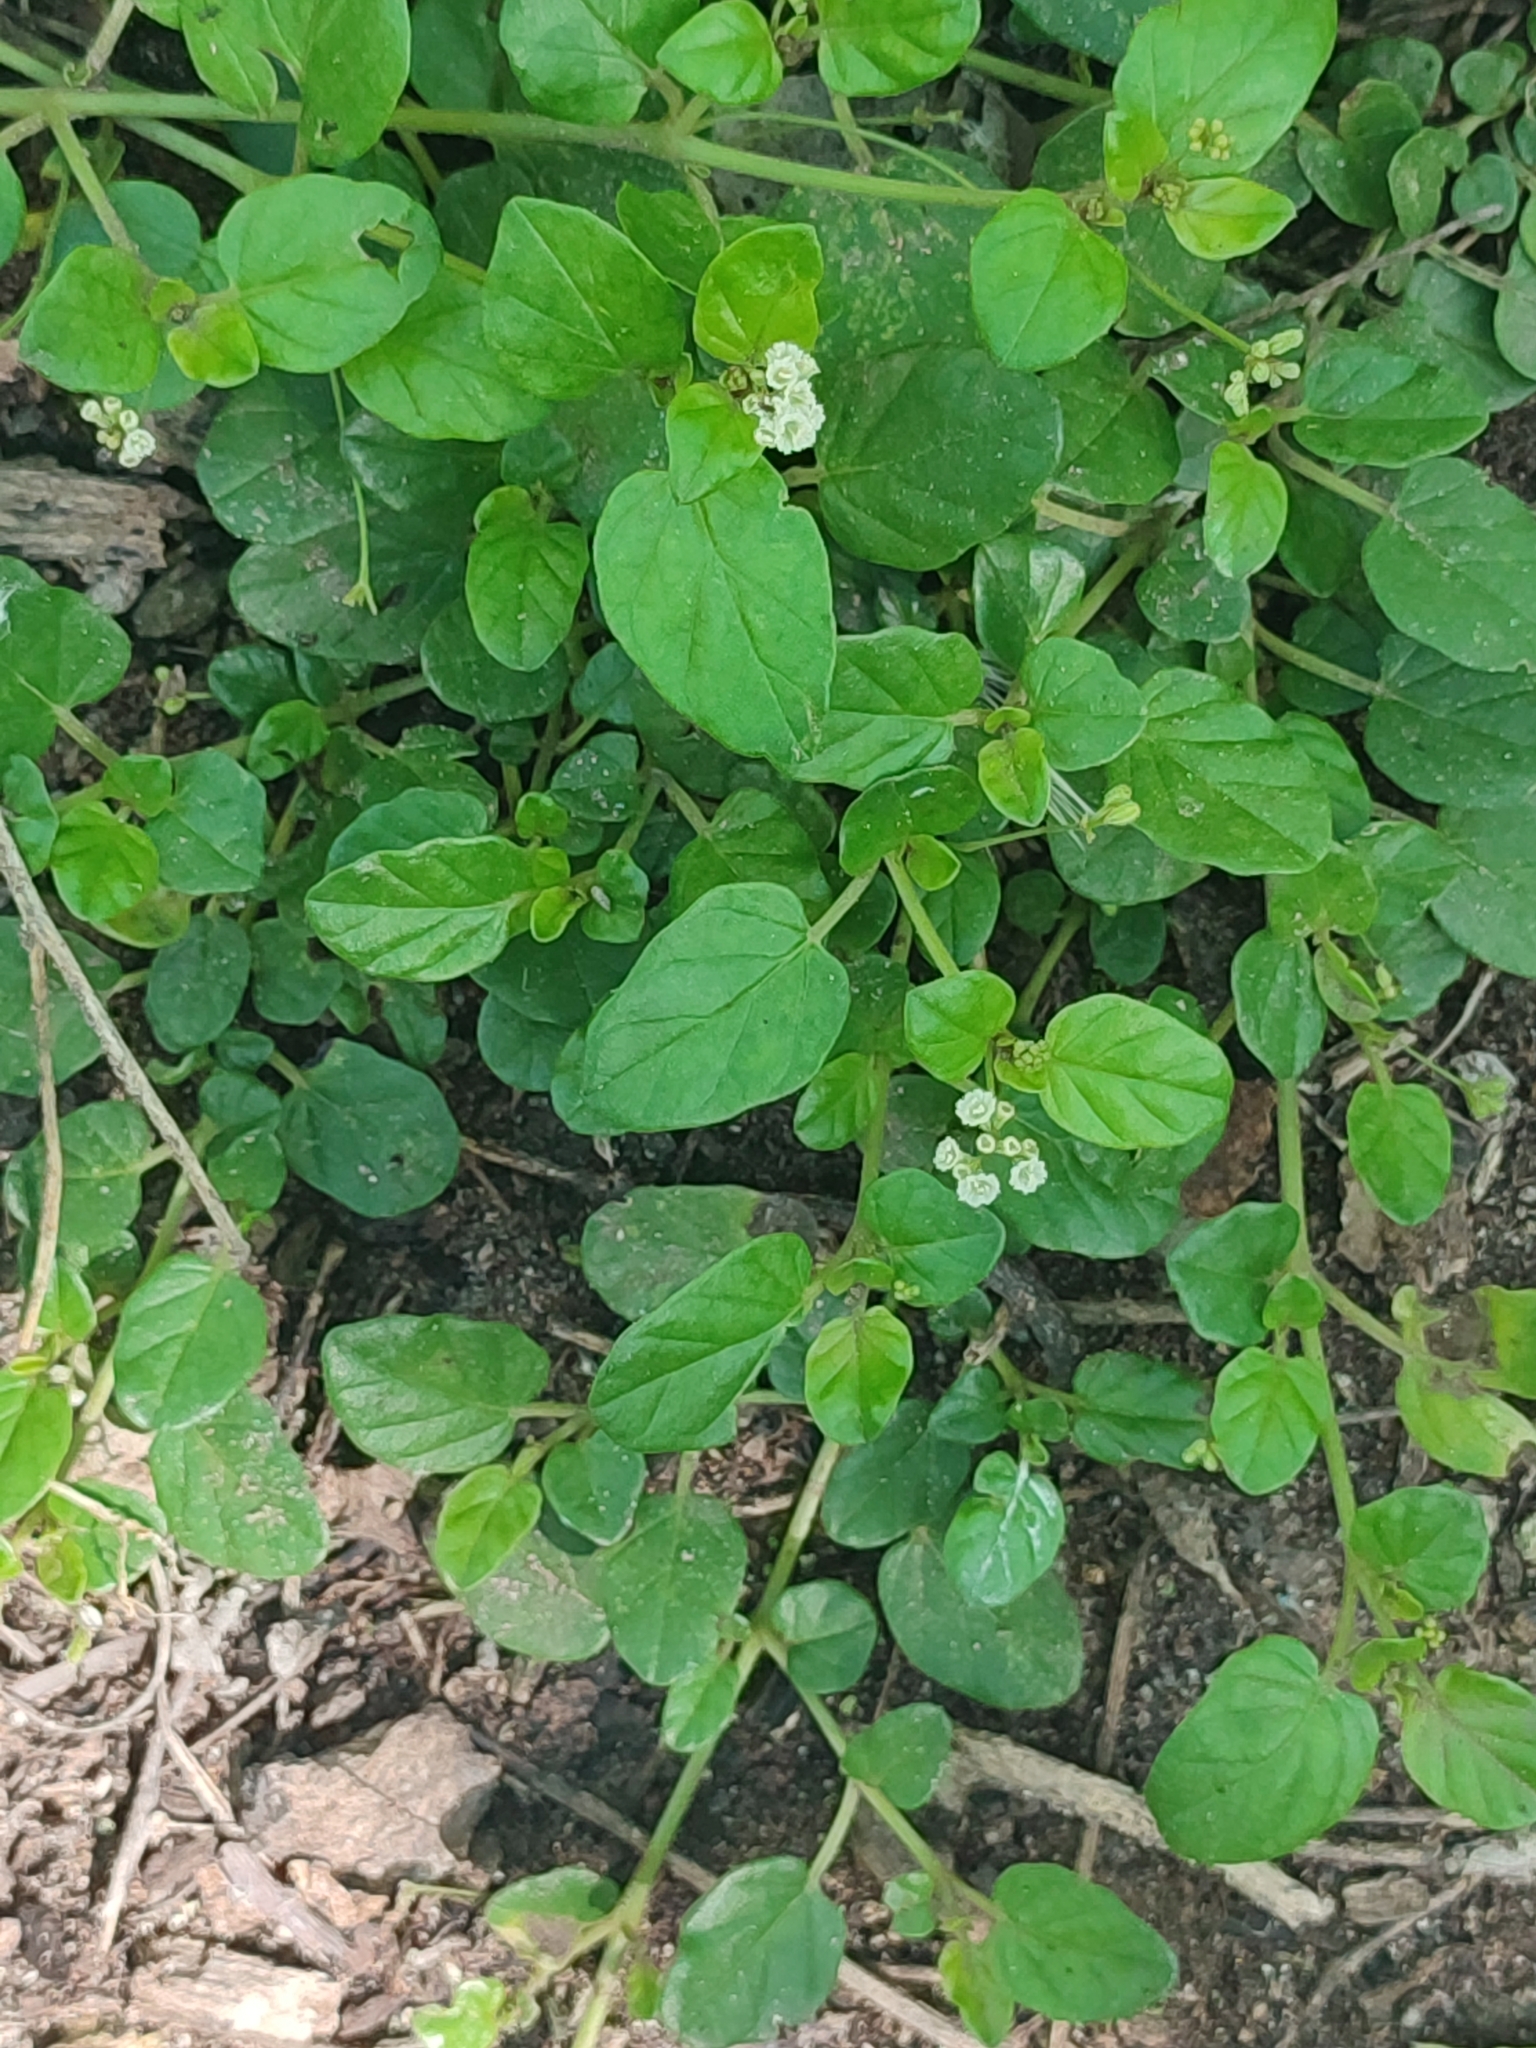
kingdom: Plantae
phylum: Tracheophyta
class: Magnoliopsida
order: Caryophyllales
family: Nyctaginaceae
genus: Boerhavia
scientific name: Boerhavia repens
